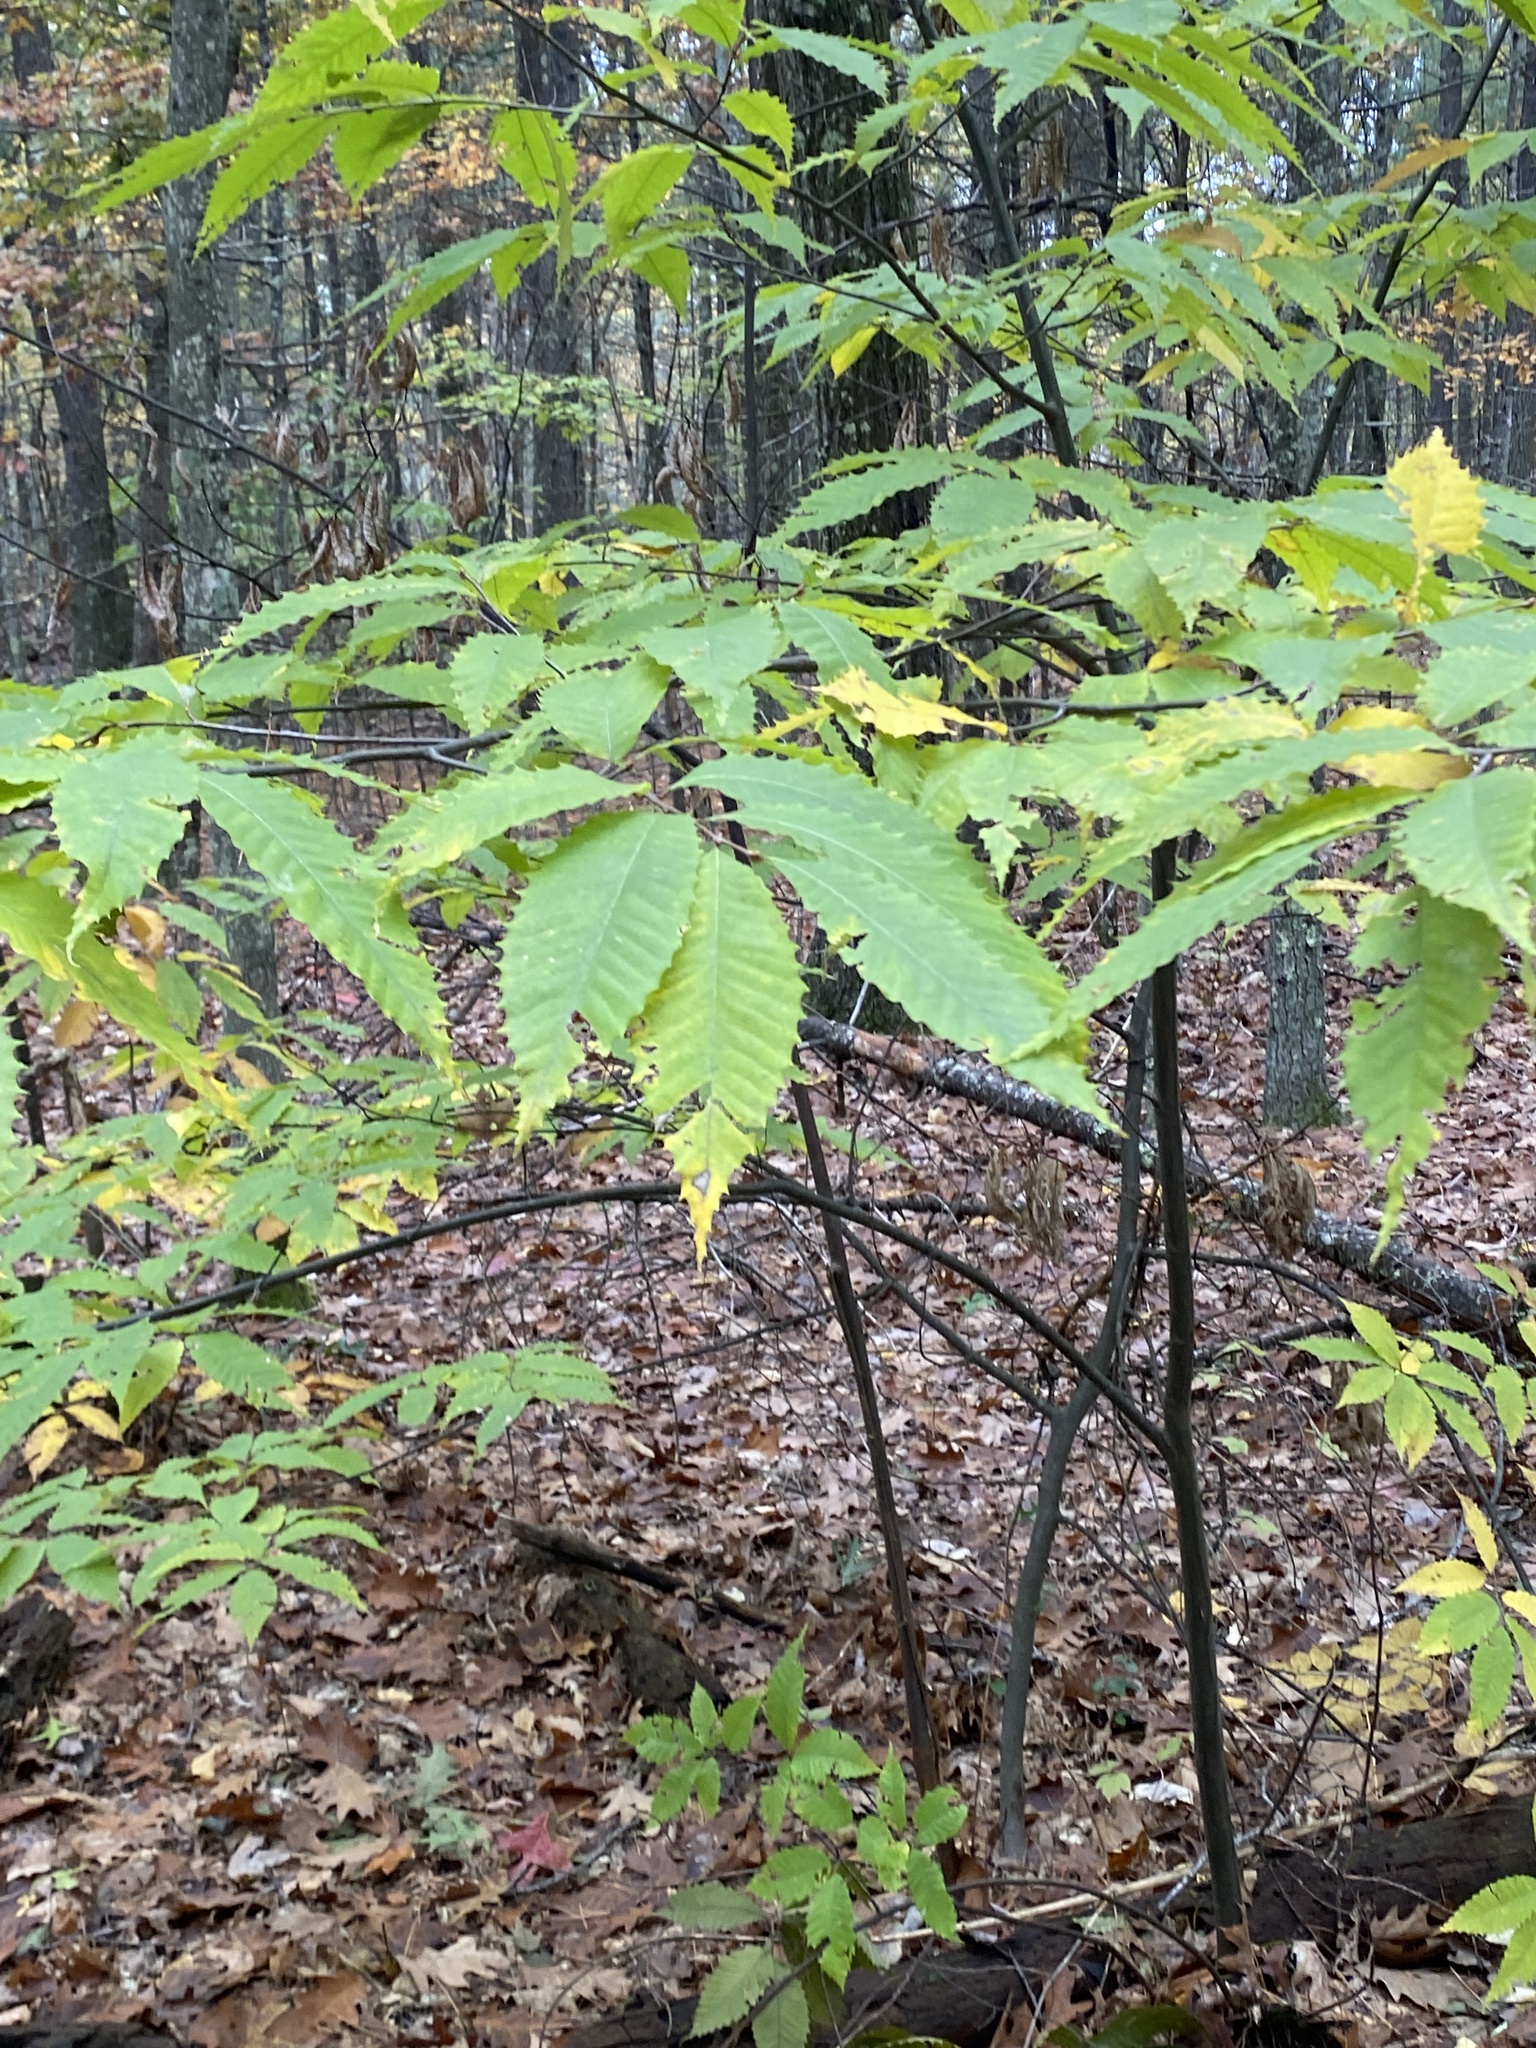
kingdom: Plantae
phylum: Tracheophyta
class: Magnoliopsida
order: Fagales
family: Fagaceae
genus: Castanea
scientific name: Castanea dentata
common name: American chestnut
